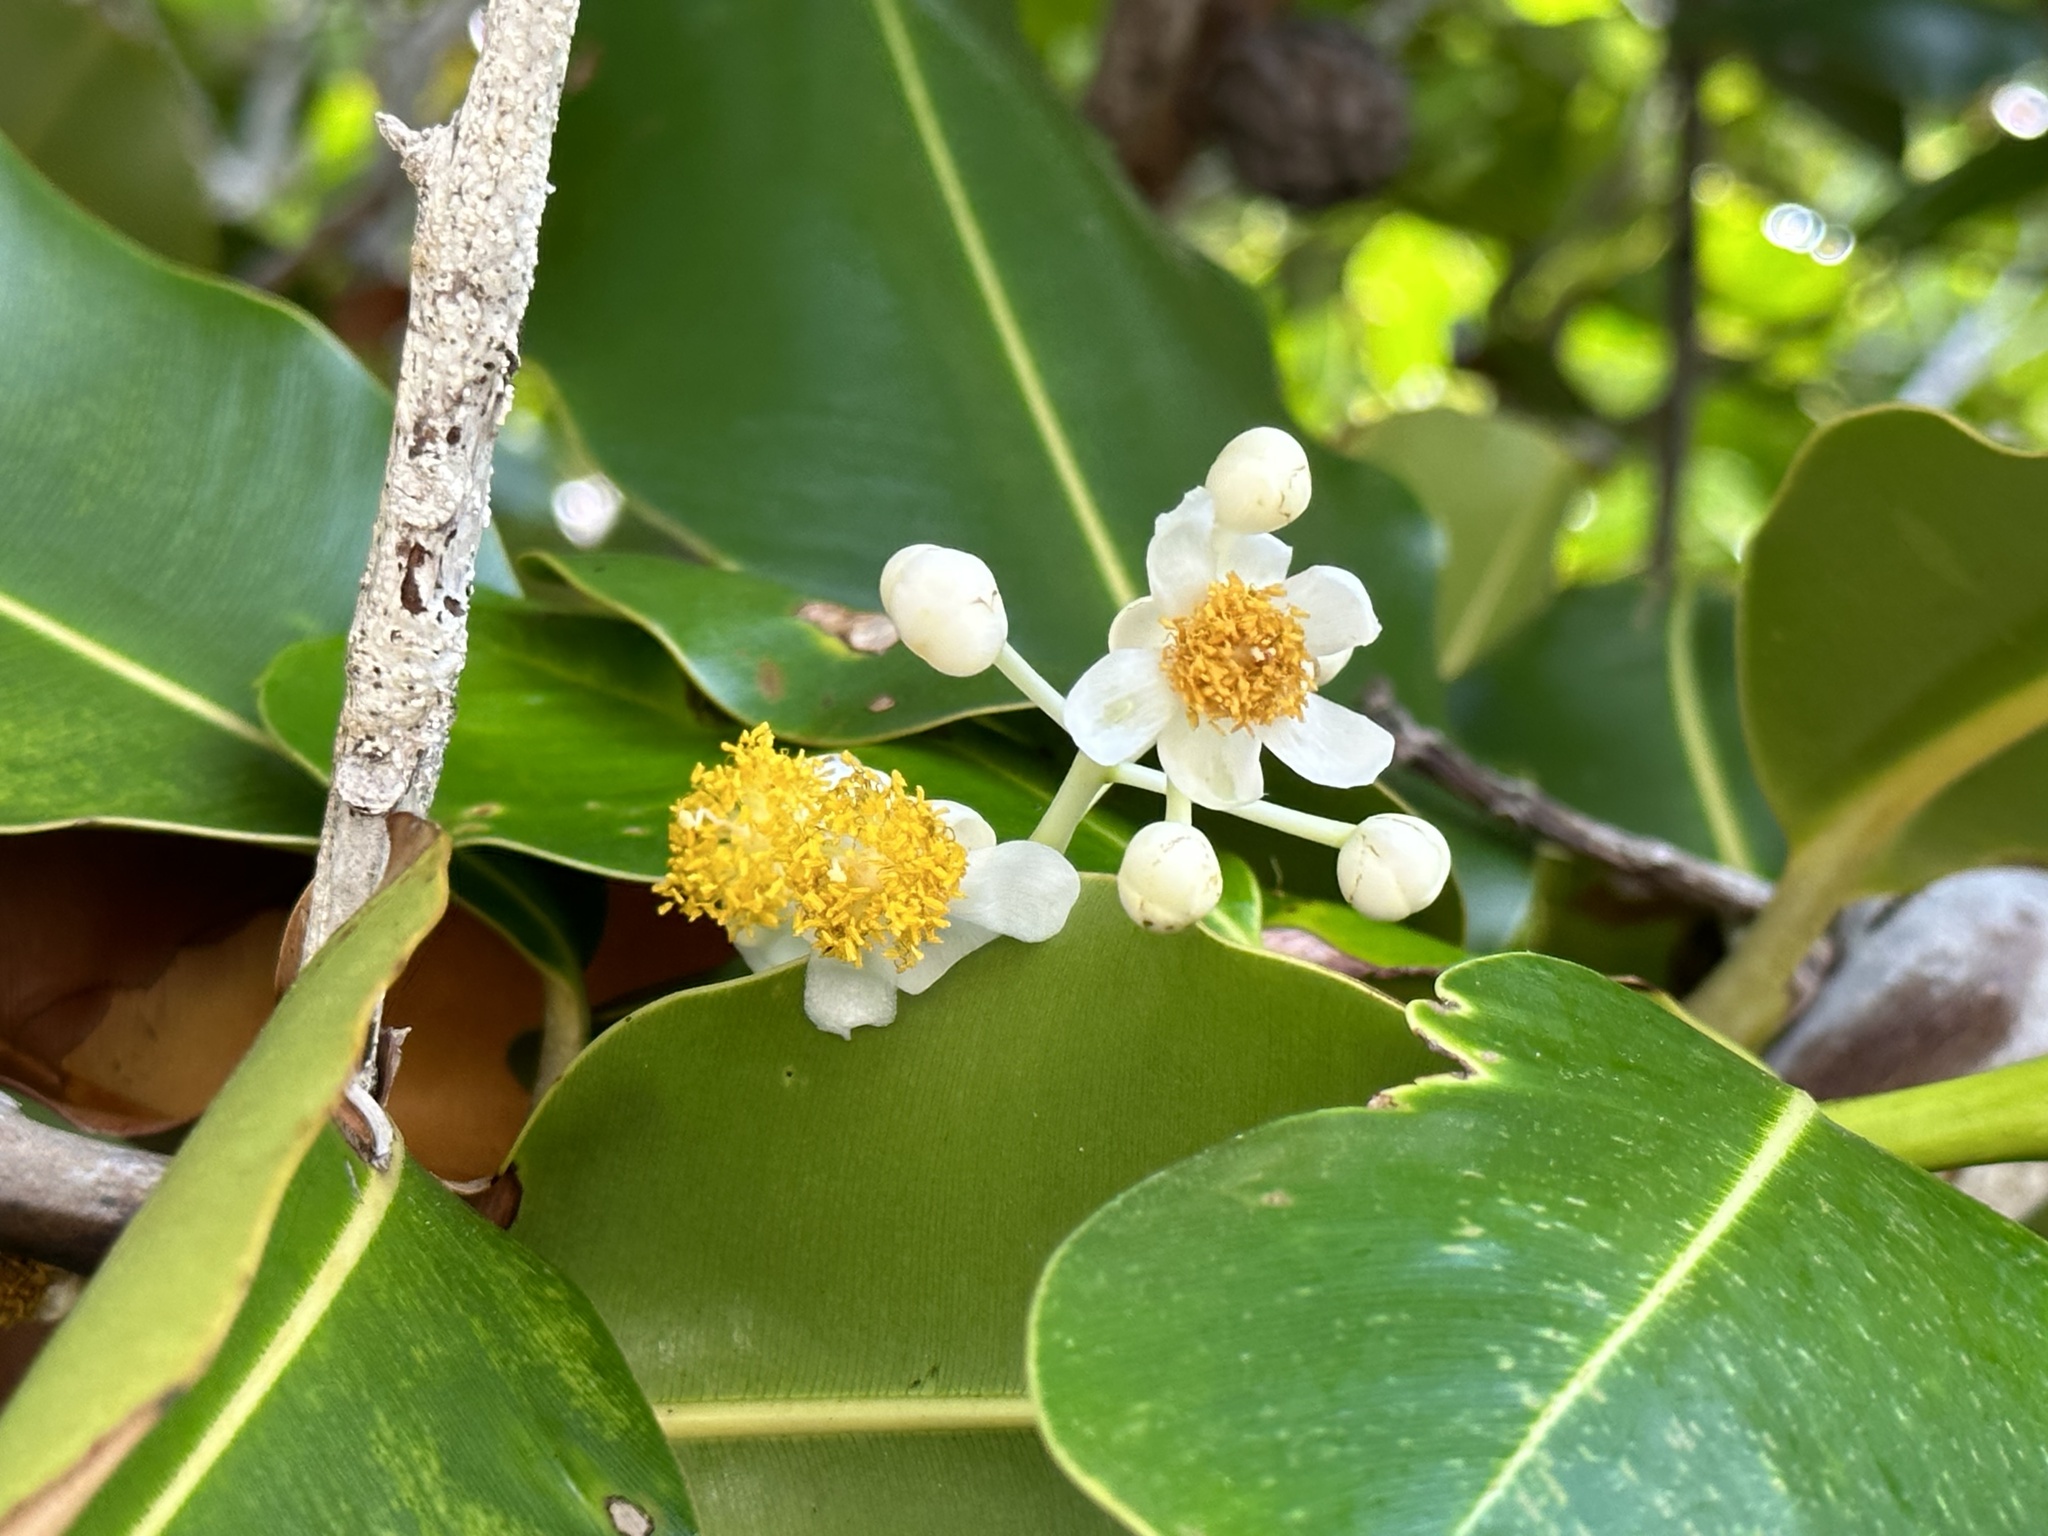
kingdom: Plantae
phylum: Tracheophyta
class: Magnoliopsida
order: Malpighiales
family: Calophyllaceae
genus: Calophyllum
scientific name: Calophyllum inophyllum
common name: Alexandrian laurel
